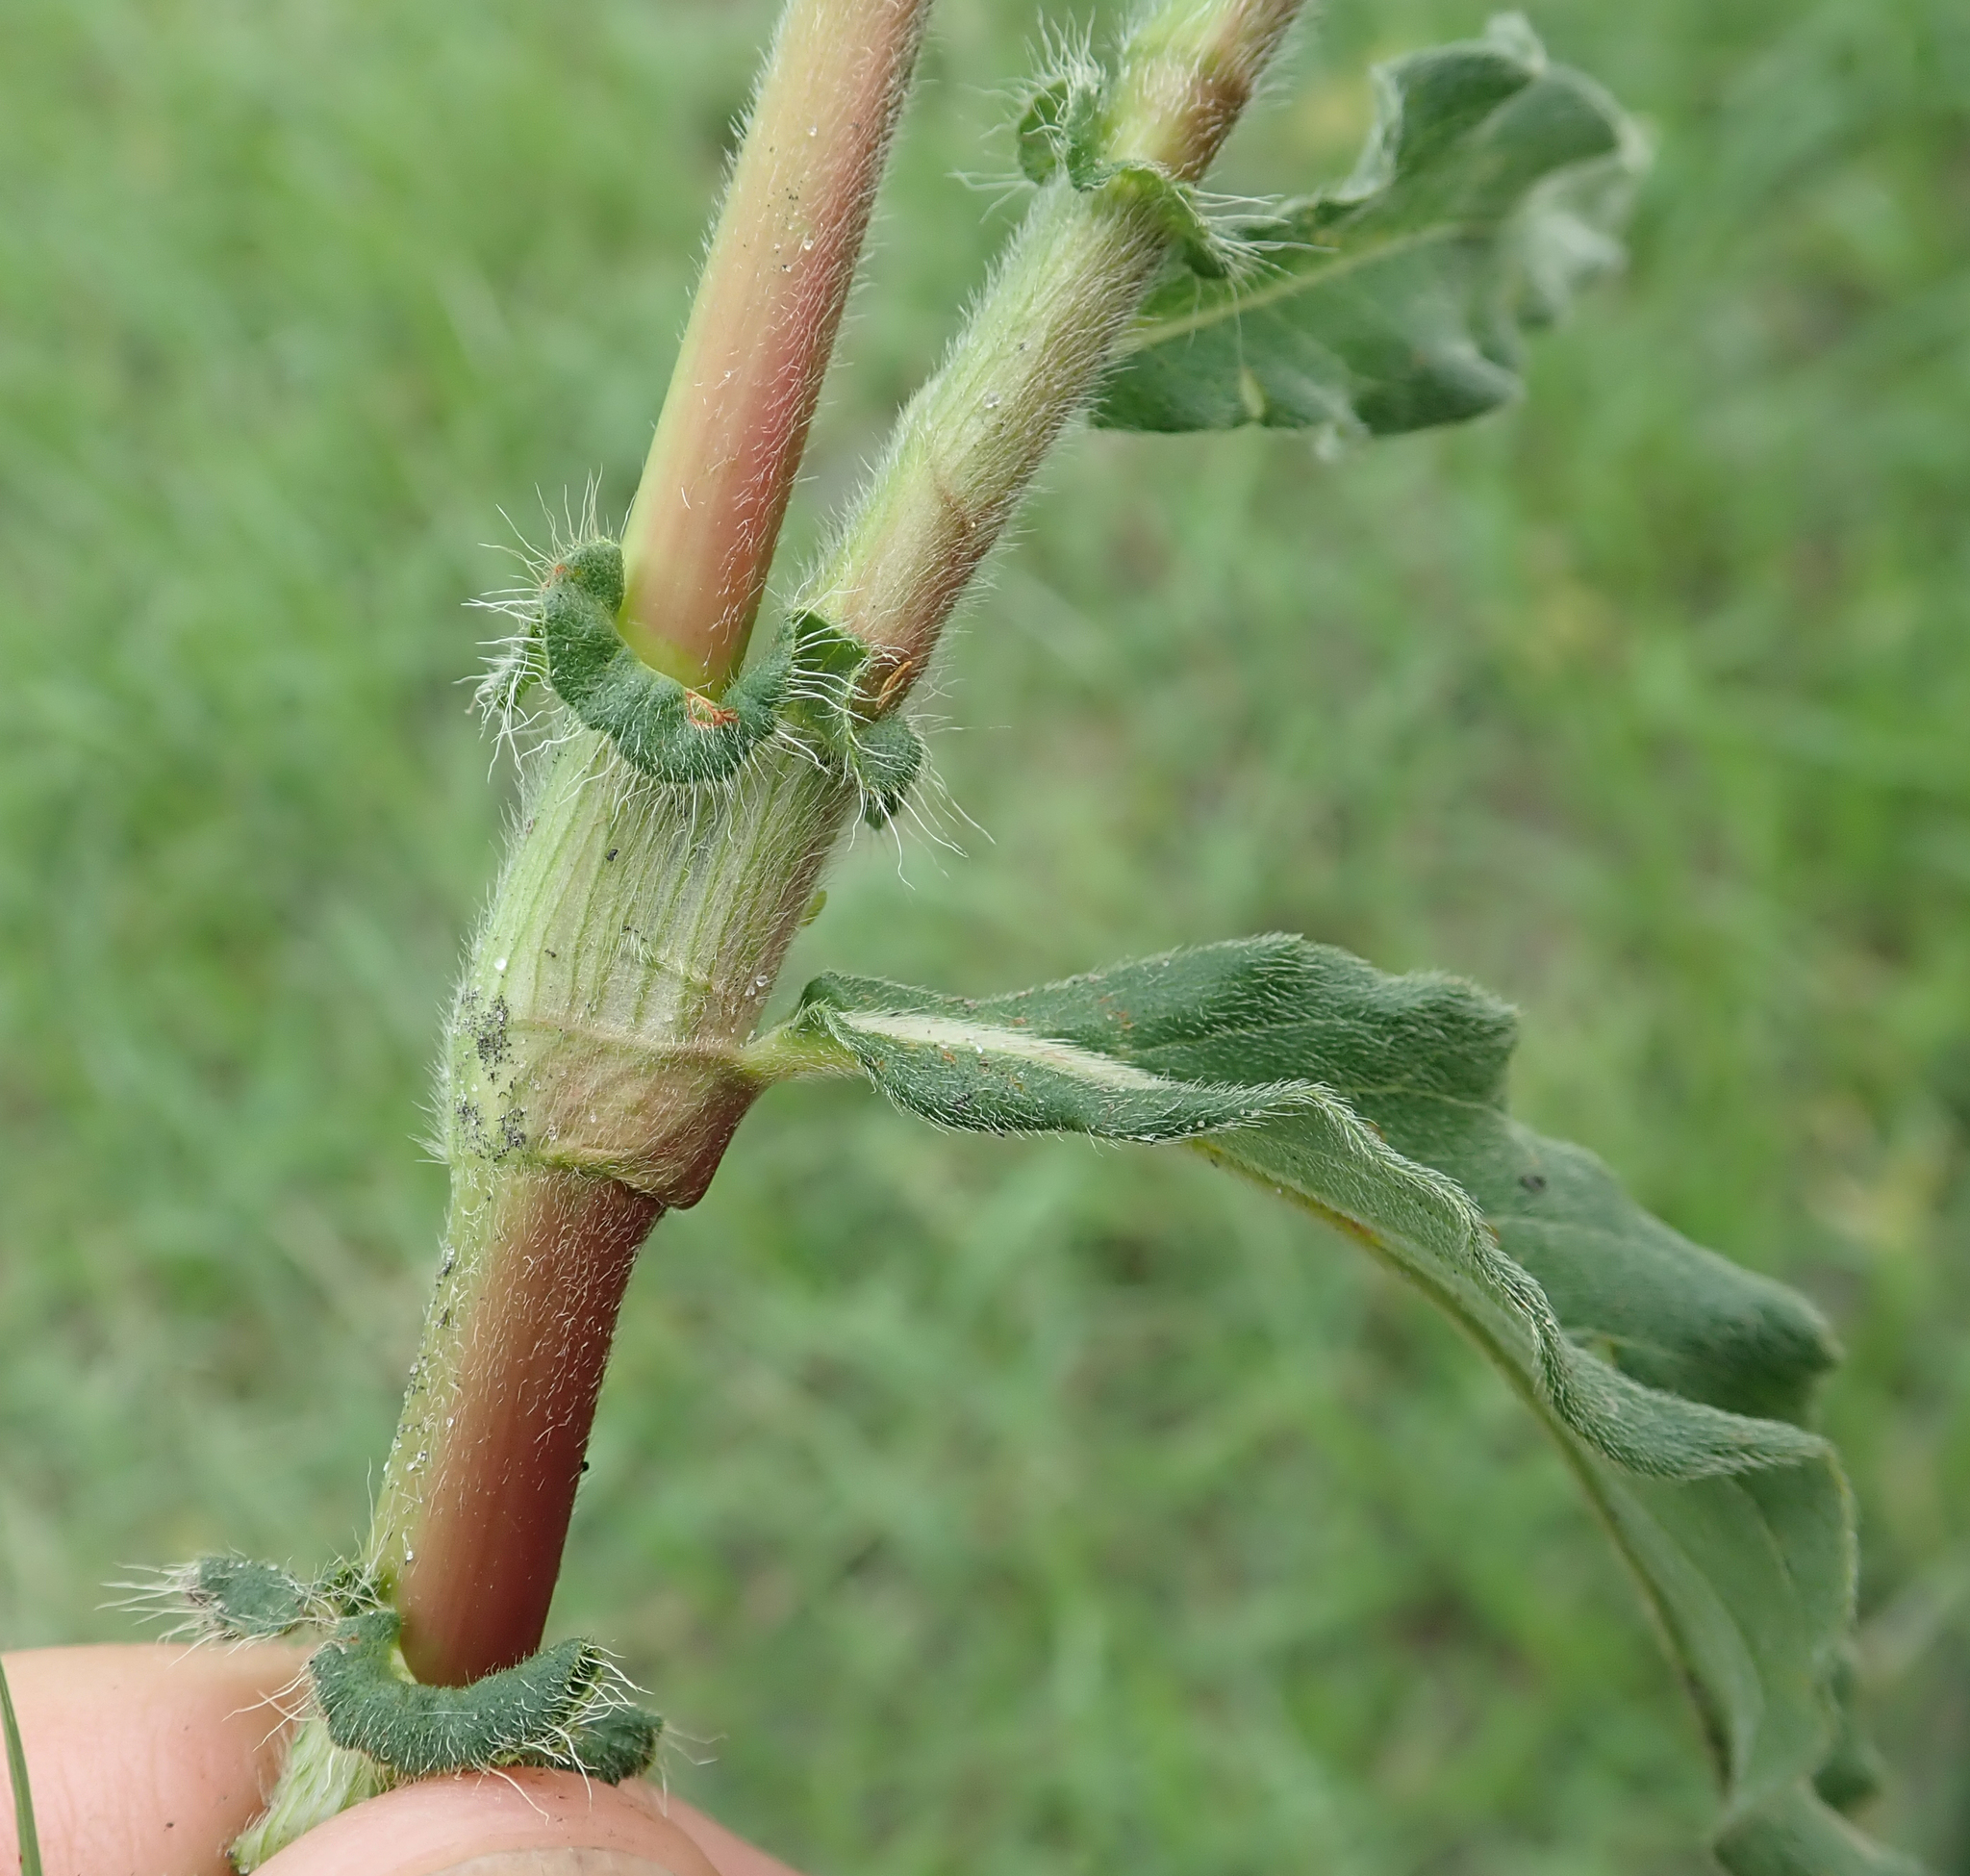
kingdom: Plantae
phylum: Tracheophyta
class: Magnoliopsida
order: Caryophyllales
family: Polygonaceae
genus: Persicaria
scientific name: Persicaria limbata
